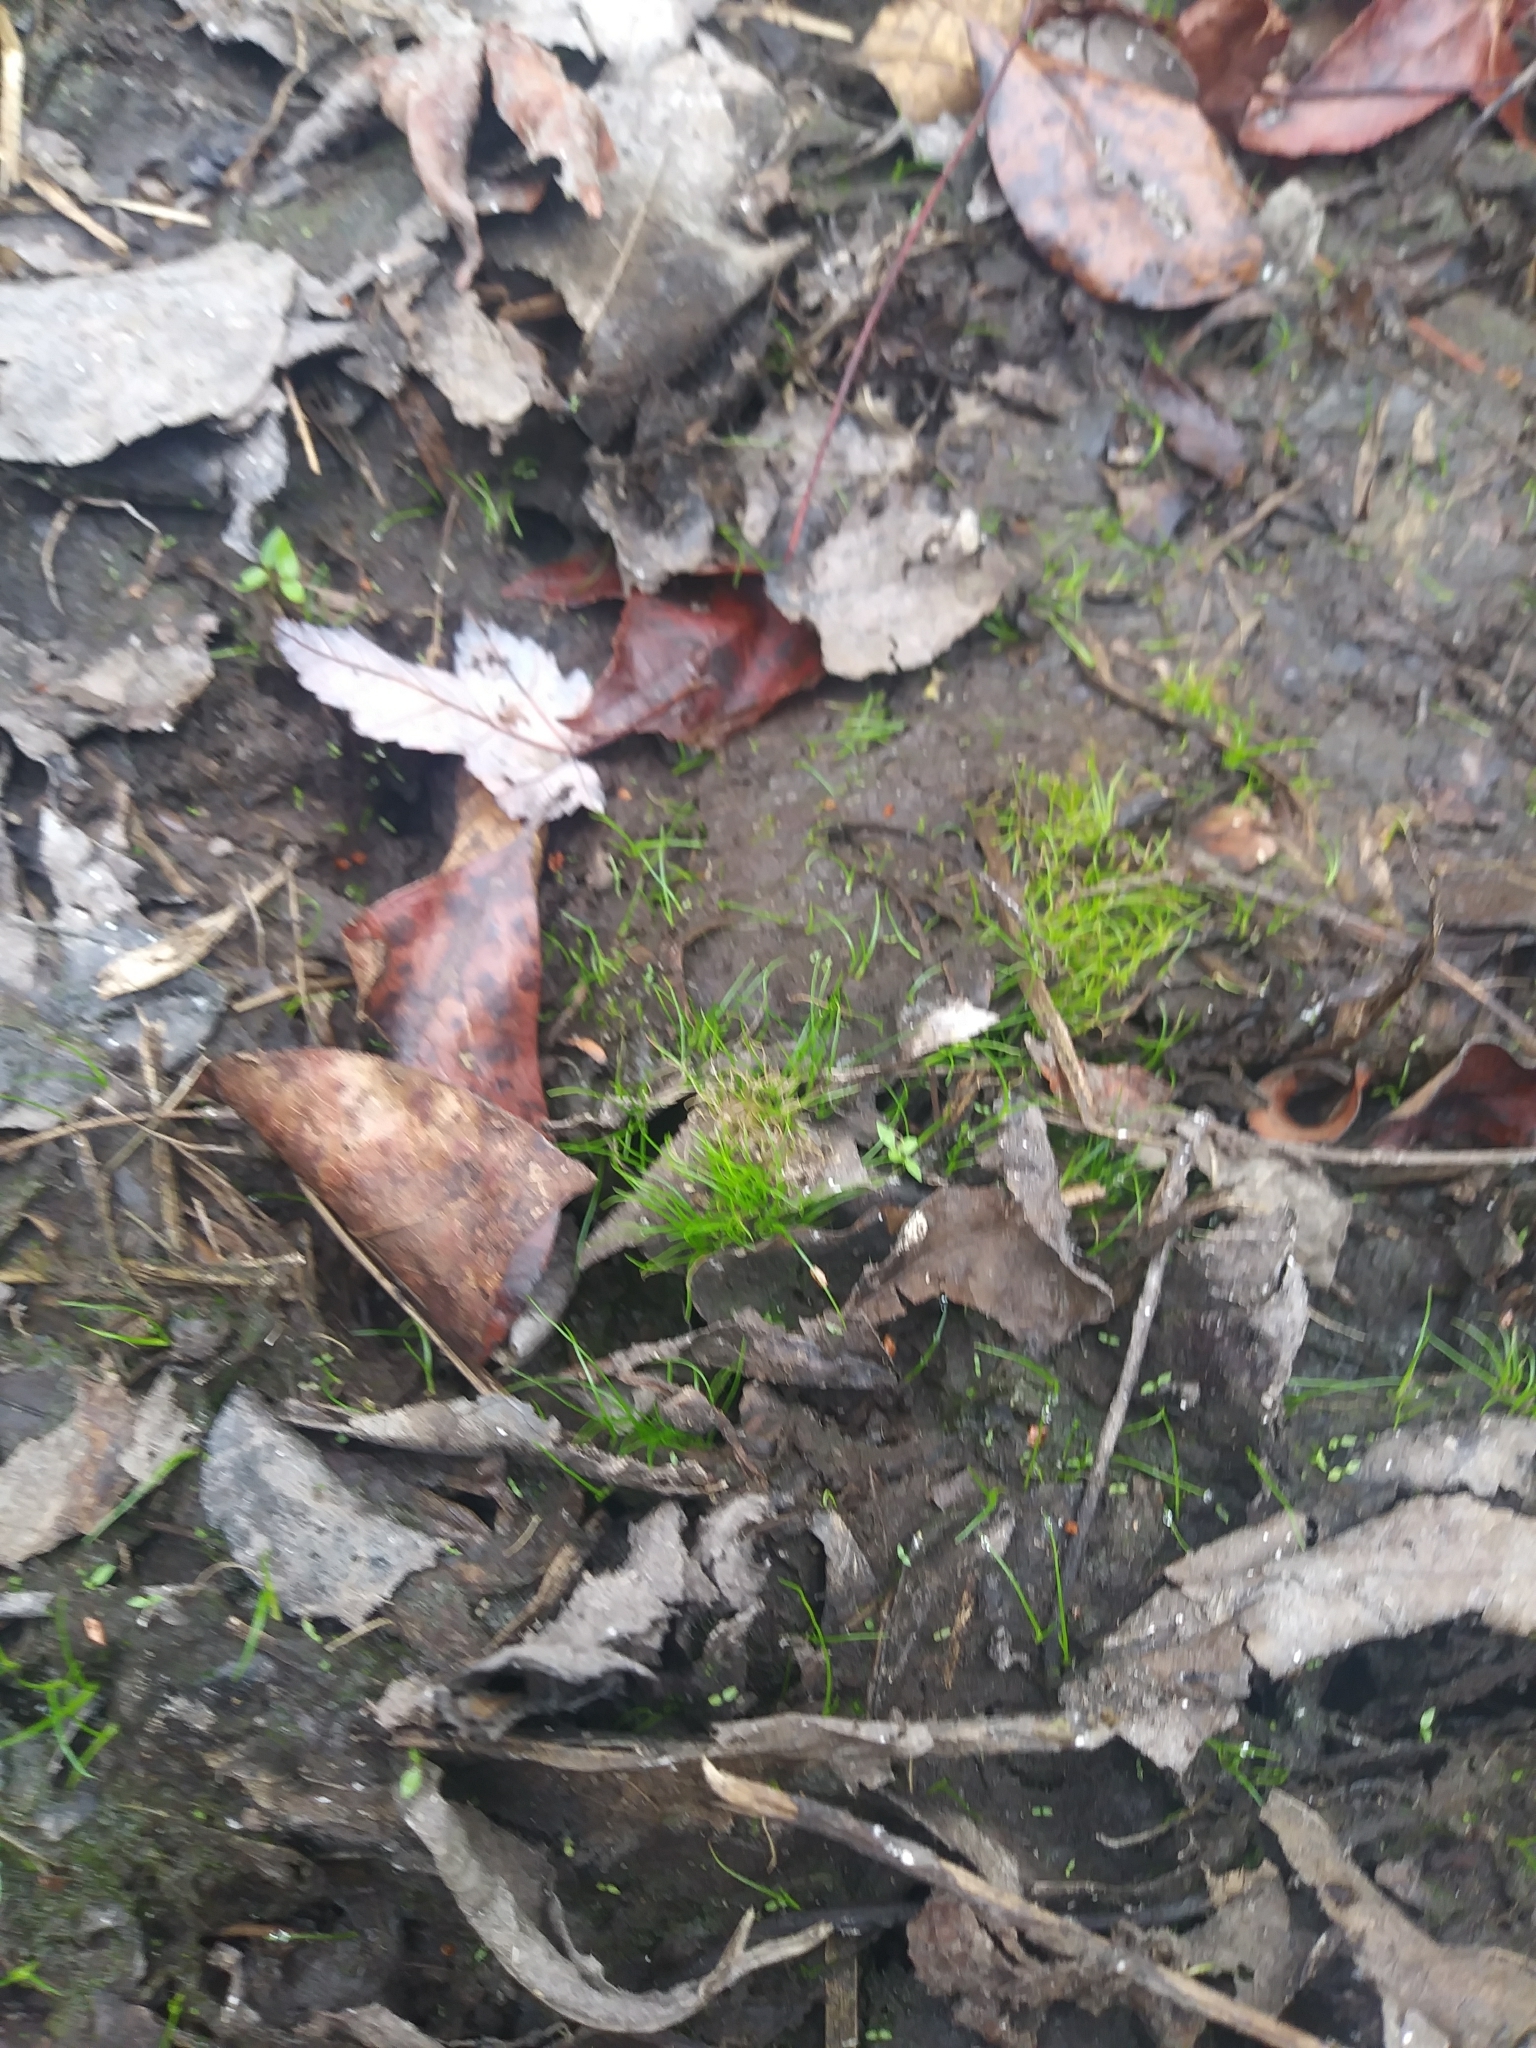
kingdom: Plantae
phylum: Tracheophyta
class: Liliopsida
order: Poales
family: Cyperaceae
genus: Fimbristylis
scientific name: Fimbristylis perpusilla
